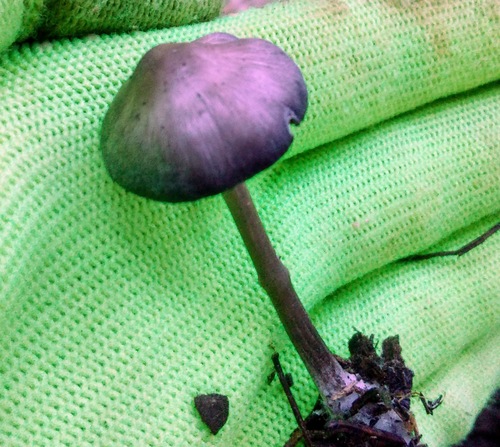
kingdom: Fungi
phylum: Basidiomycota
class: Agaricomycetes
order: Agaricales
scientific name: Agaricales
